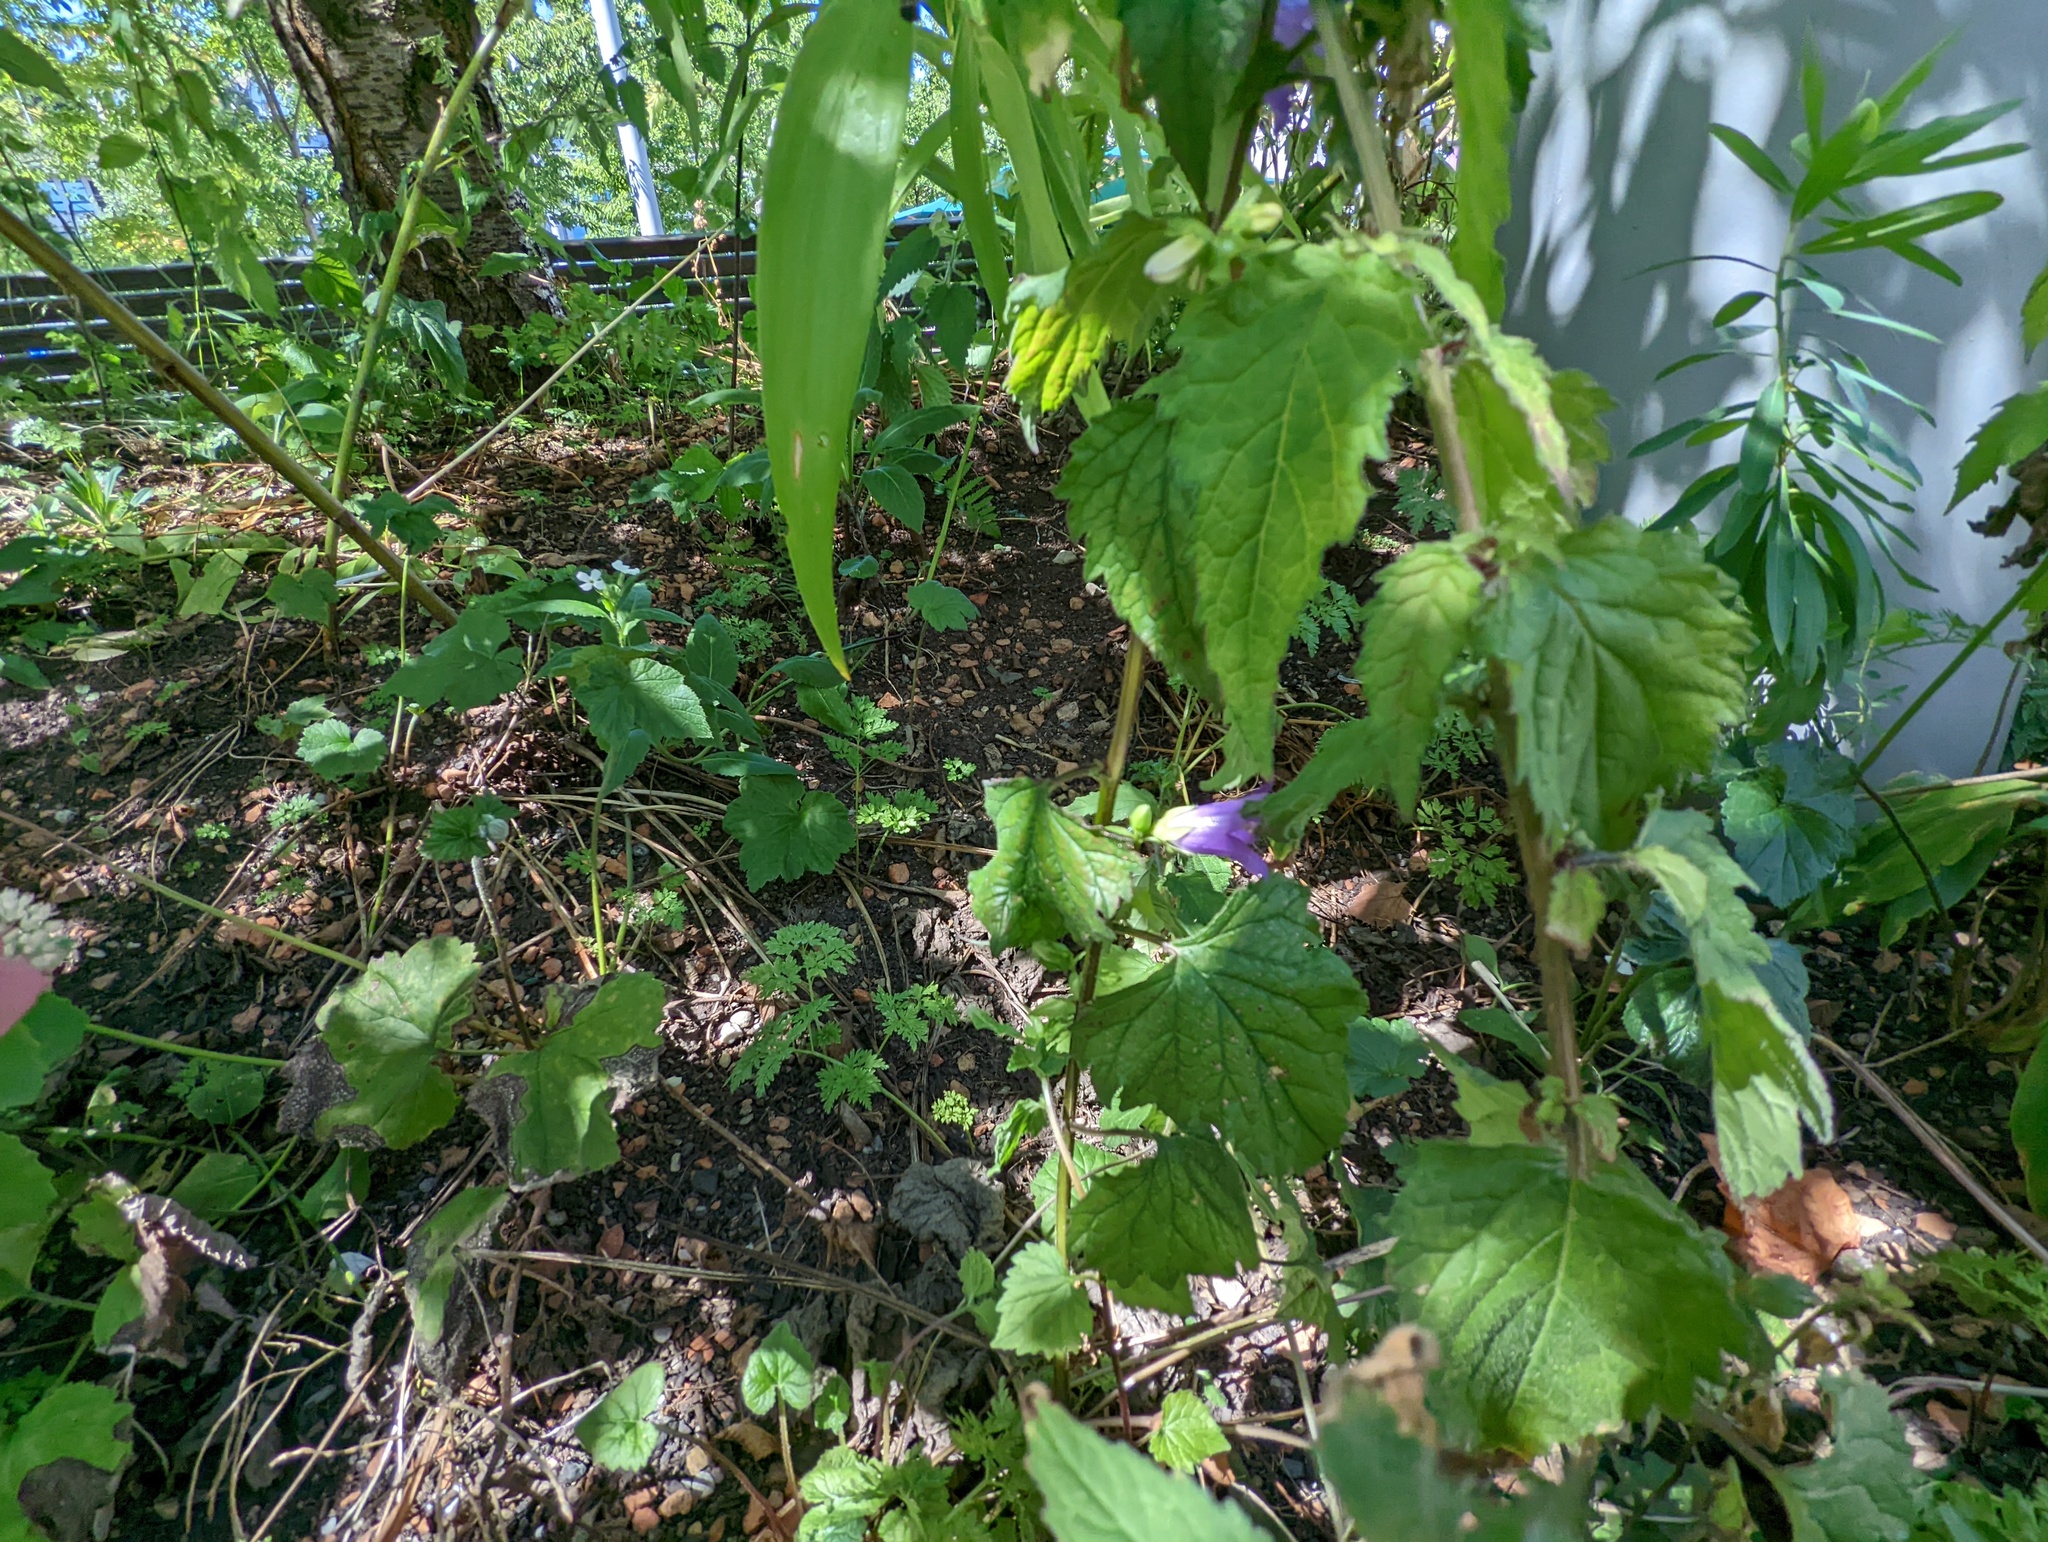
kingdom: Plantae
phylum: Tracheophyta
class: Magnoliopsida
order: Asterales
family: Campanulaceae
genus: Campanula
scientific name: Campanula trachelium
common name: Nettle-leaved bellflower
